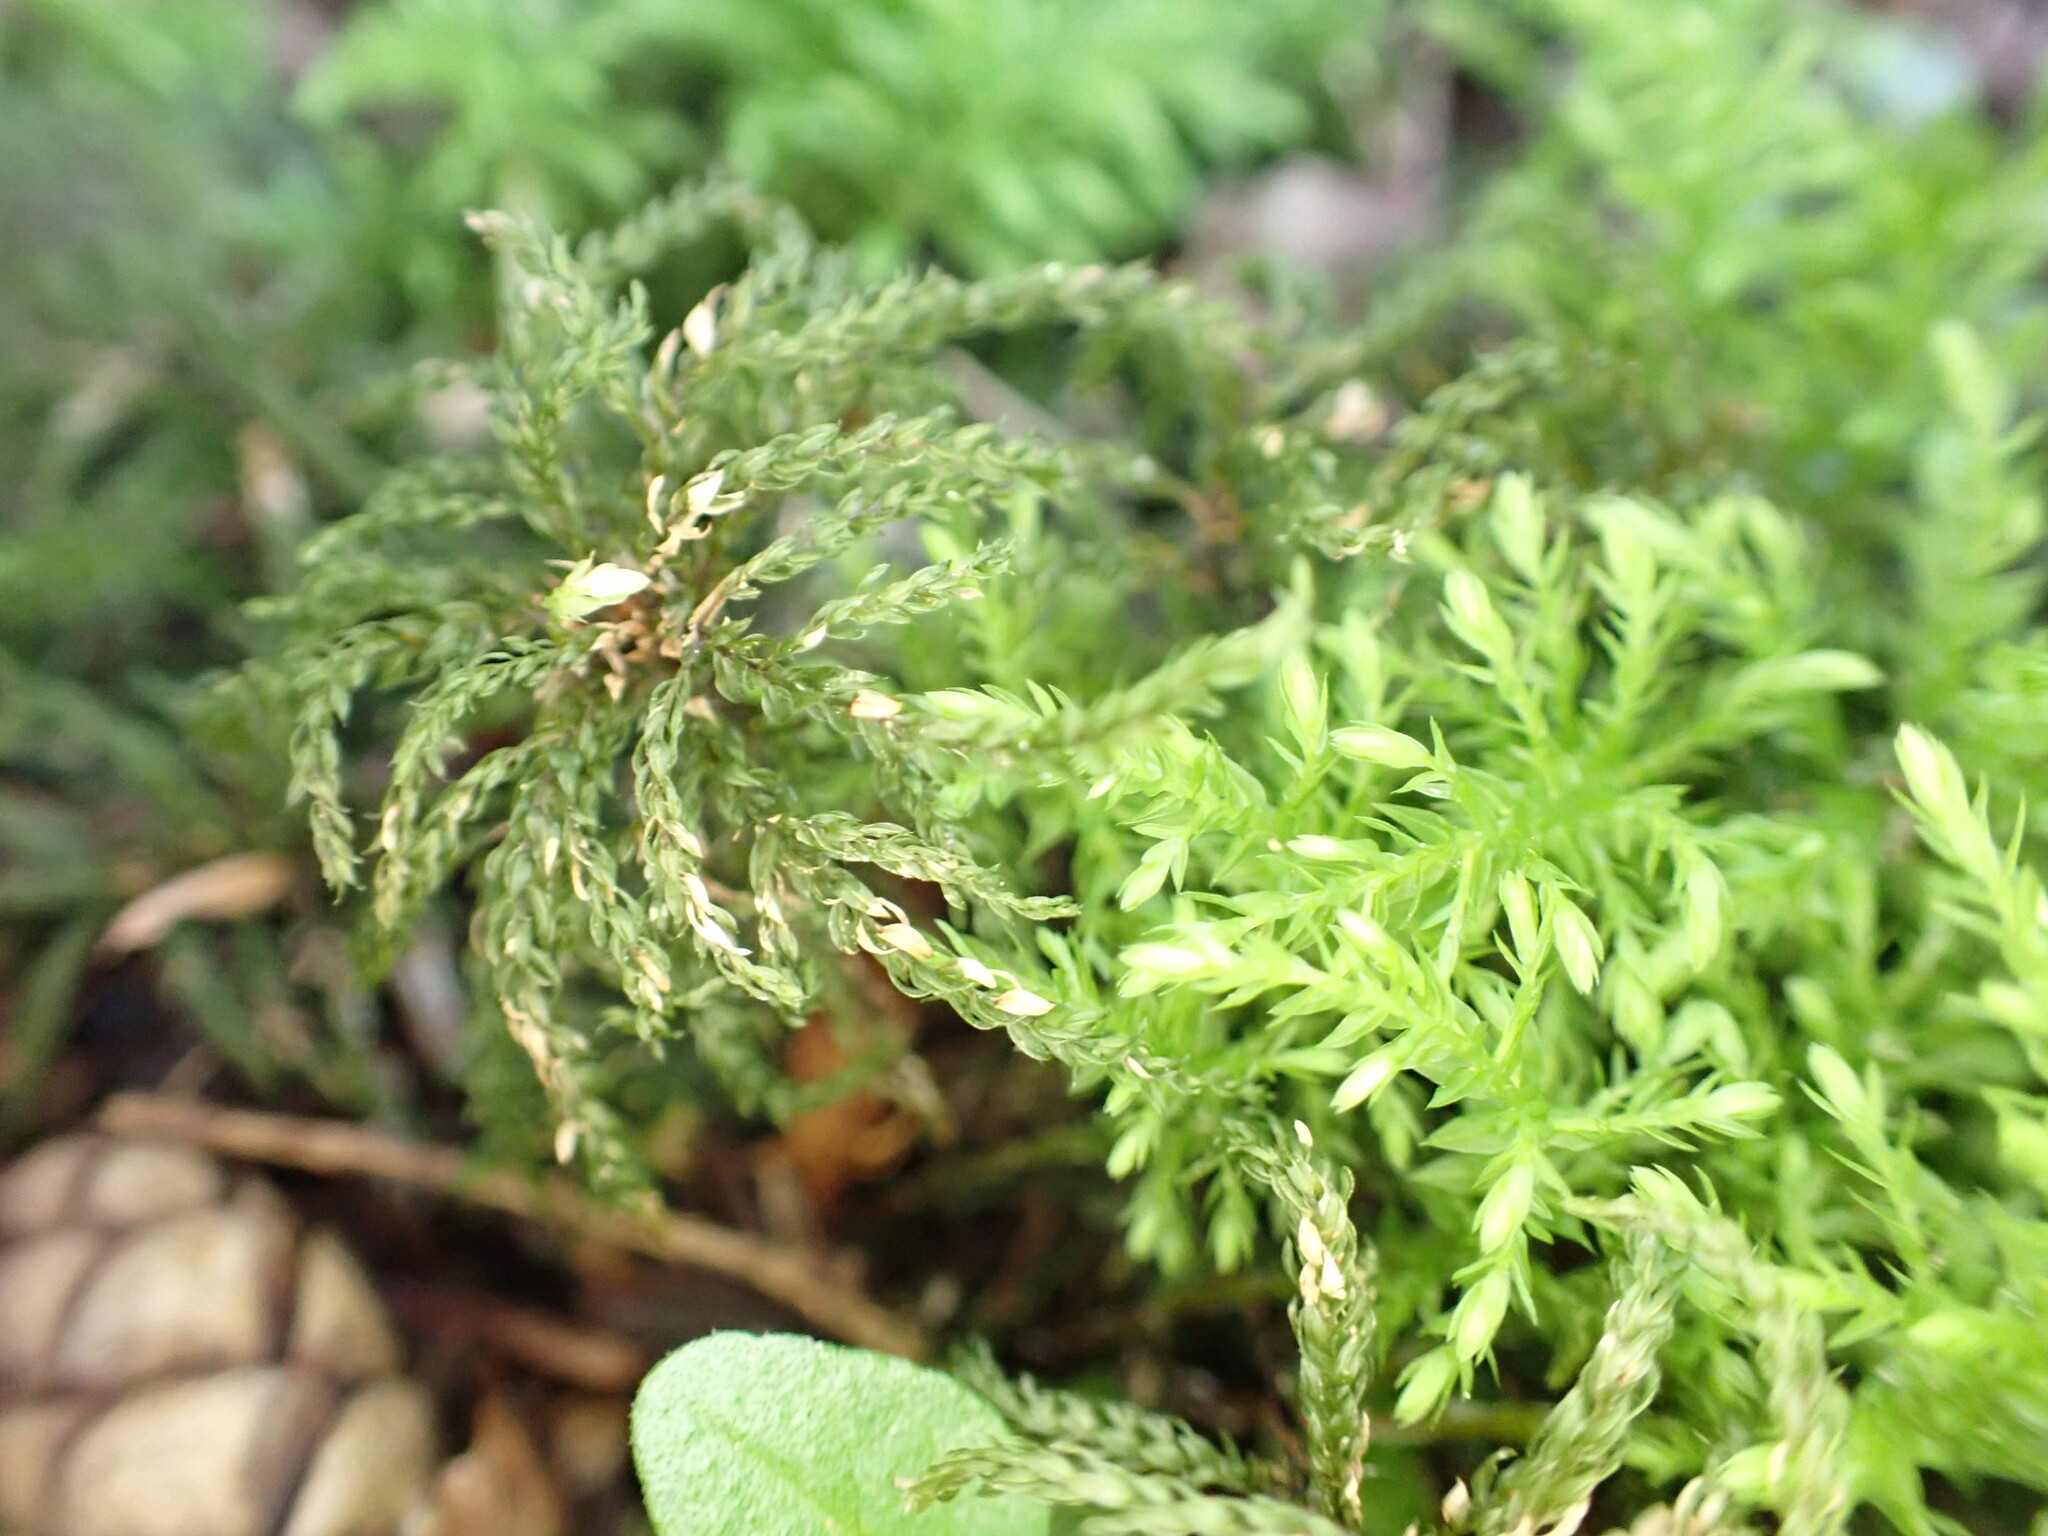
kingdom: Plantae
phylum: Bryophyta
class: Bryopsida
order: Bryales
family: Mniaceae
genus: Leucolepis
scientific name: Leucolepis acanthoneura
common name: Leucolepis umbrella moss
